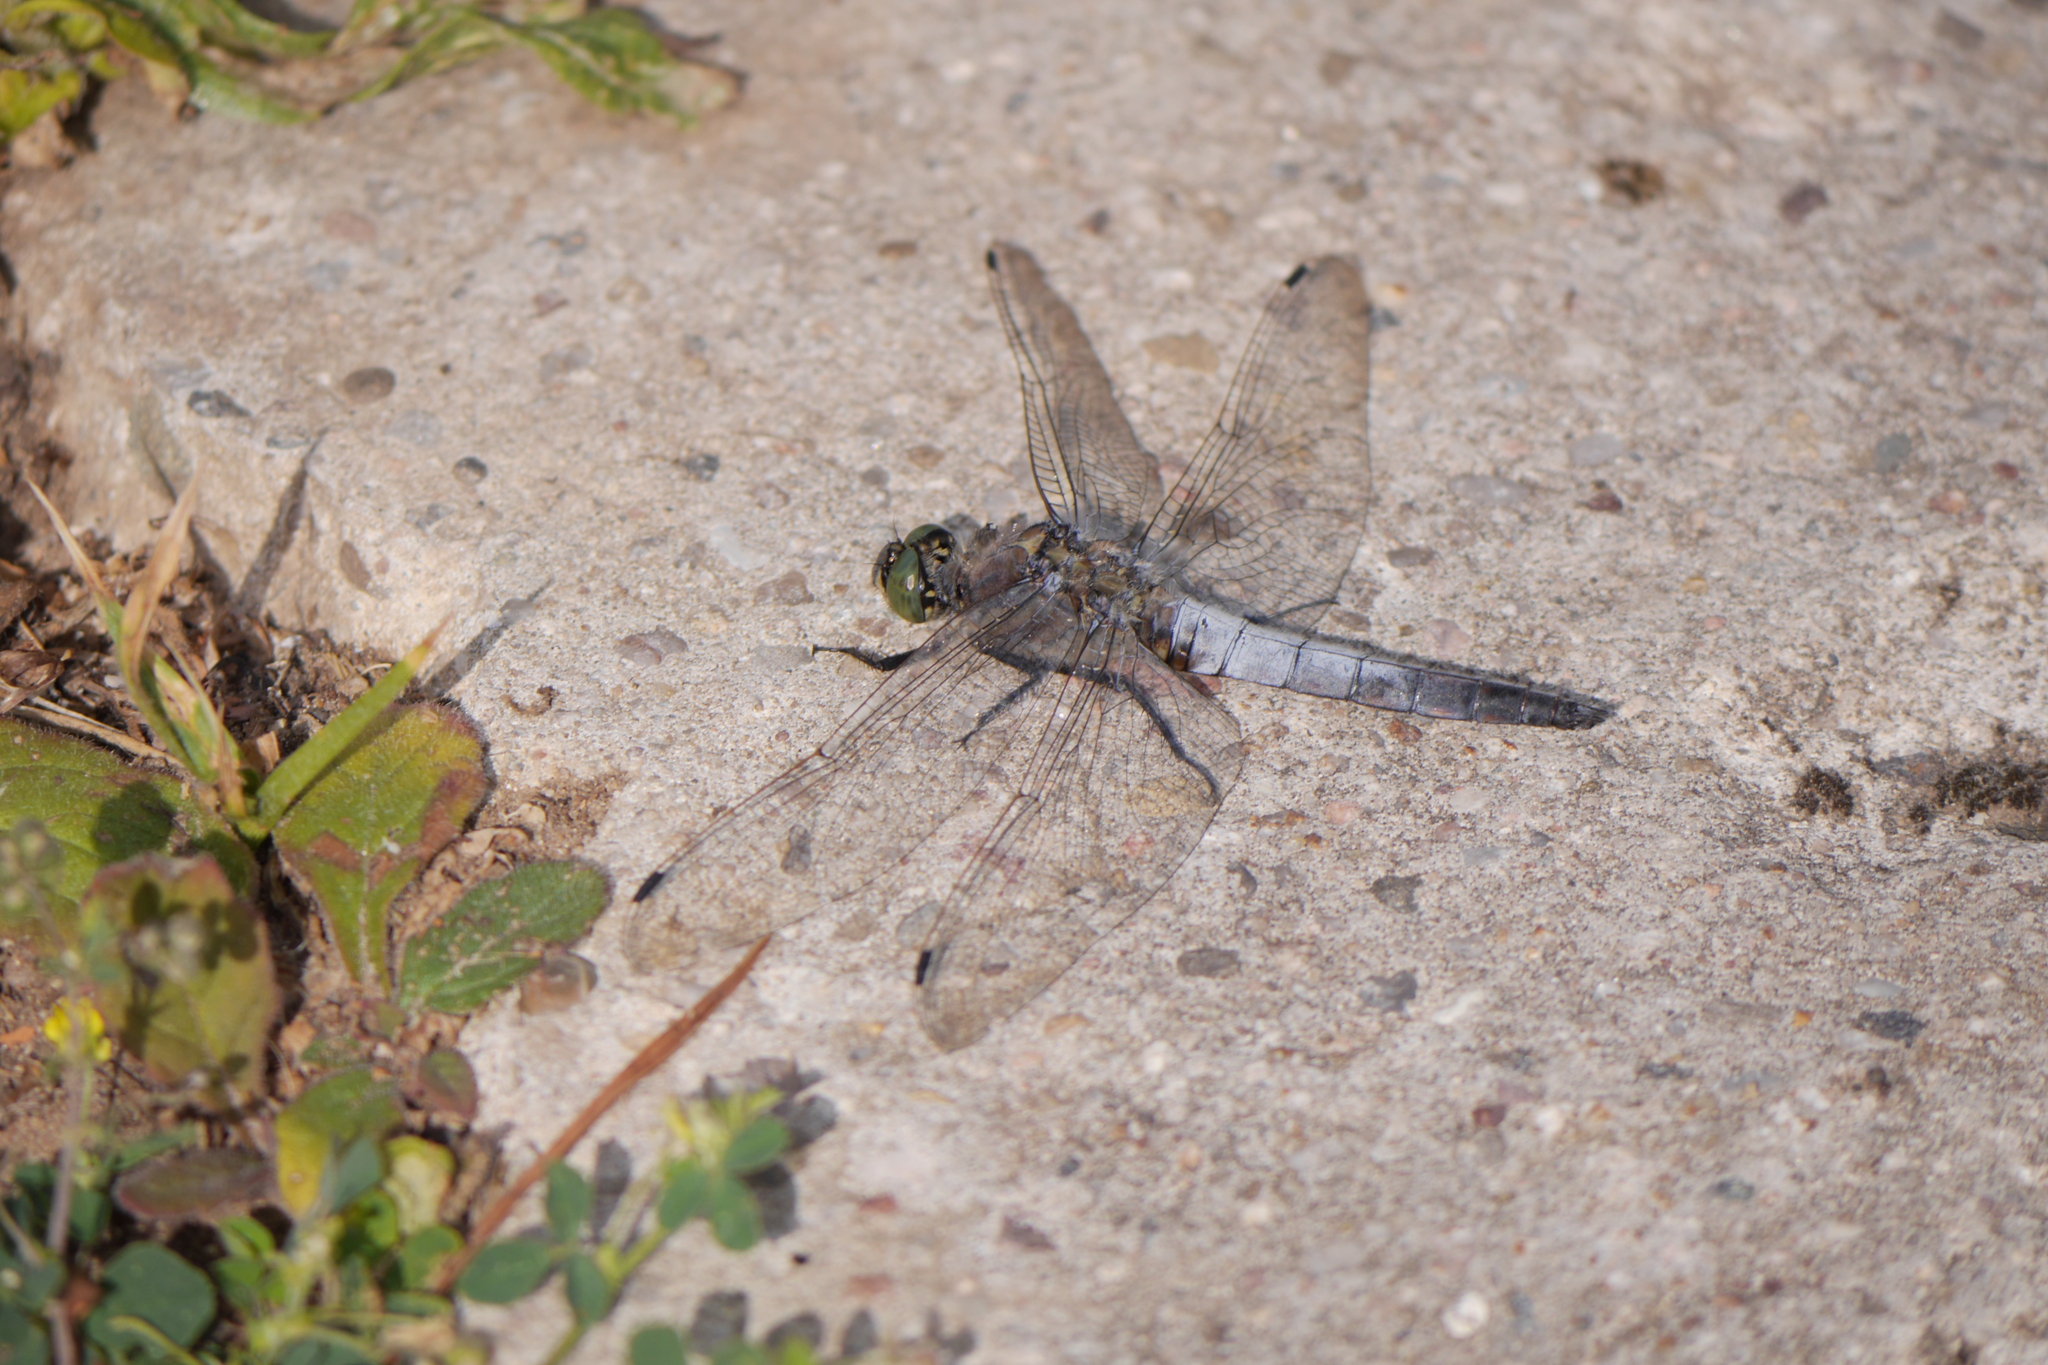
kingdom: Animalia
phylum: Arthropoda
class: Insecta
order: Odonata
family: Libellulidae
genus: Orthetrum
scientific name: Orthetrum cancellatum
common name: Black-tailed skimmer
